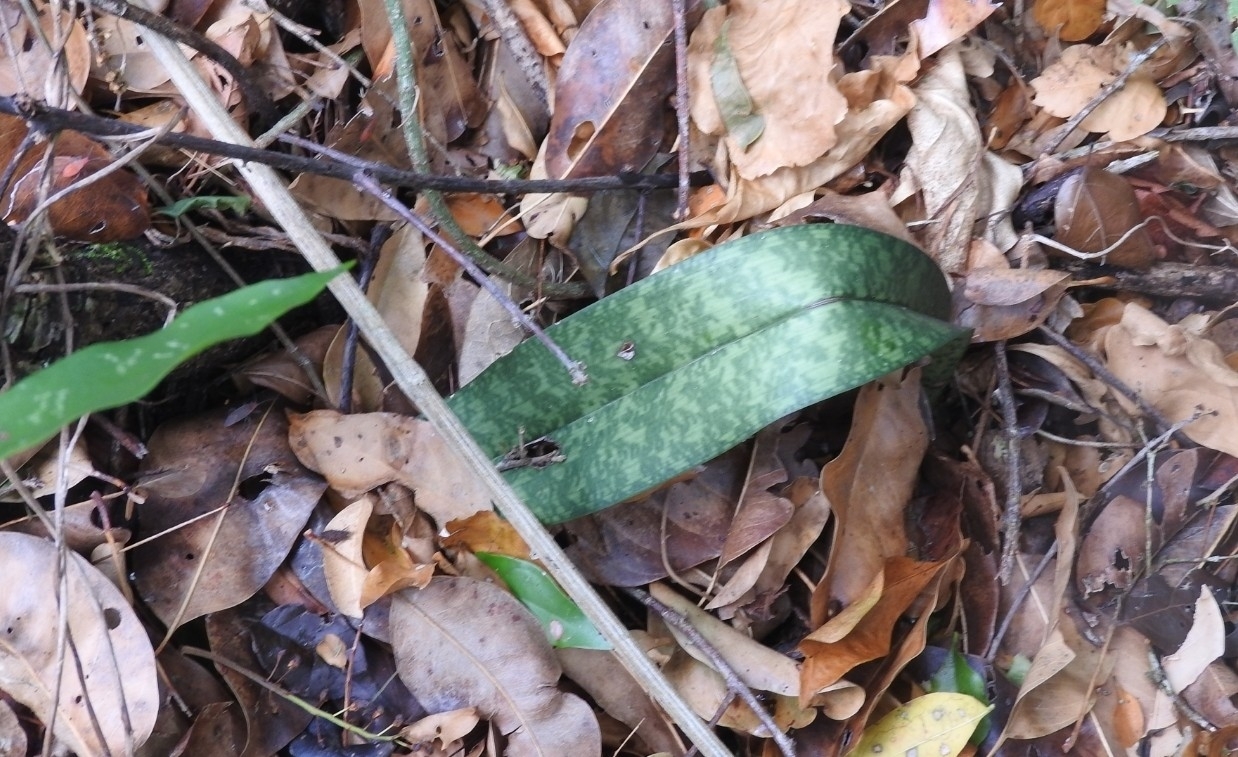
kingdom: Plantae
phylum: Tracheophyta
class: Liliopsida
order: Asparagales
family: Asparagaceae
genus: Dracaena
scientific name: Dracaena hyacinthoides
